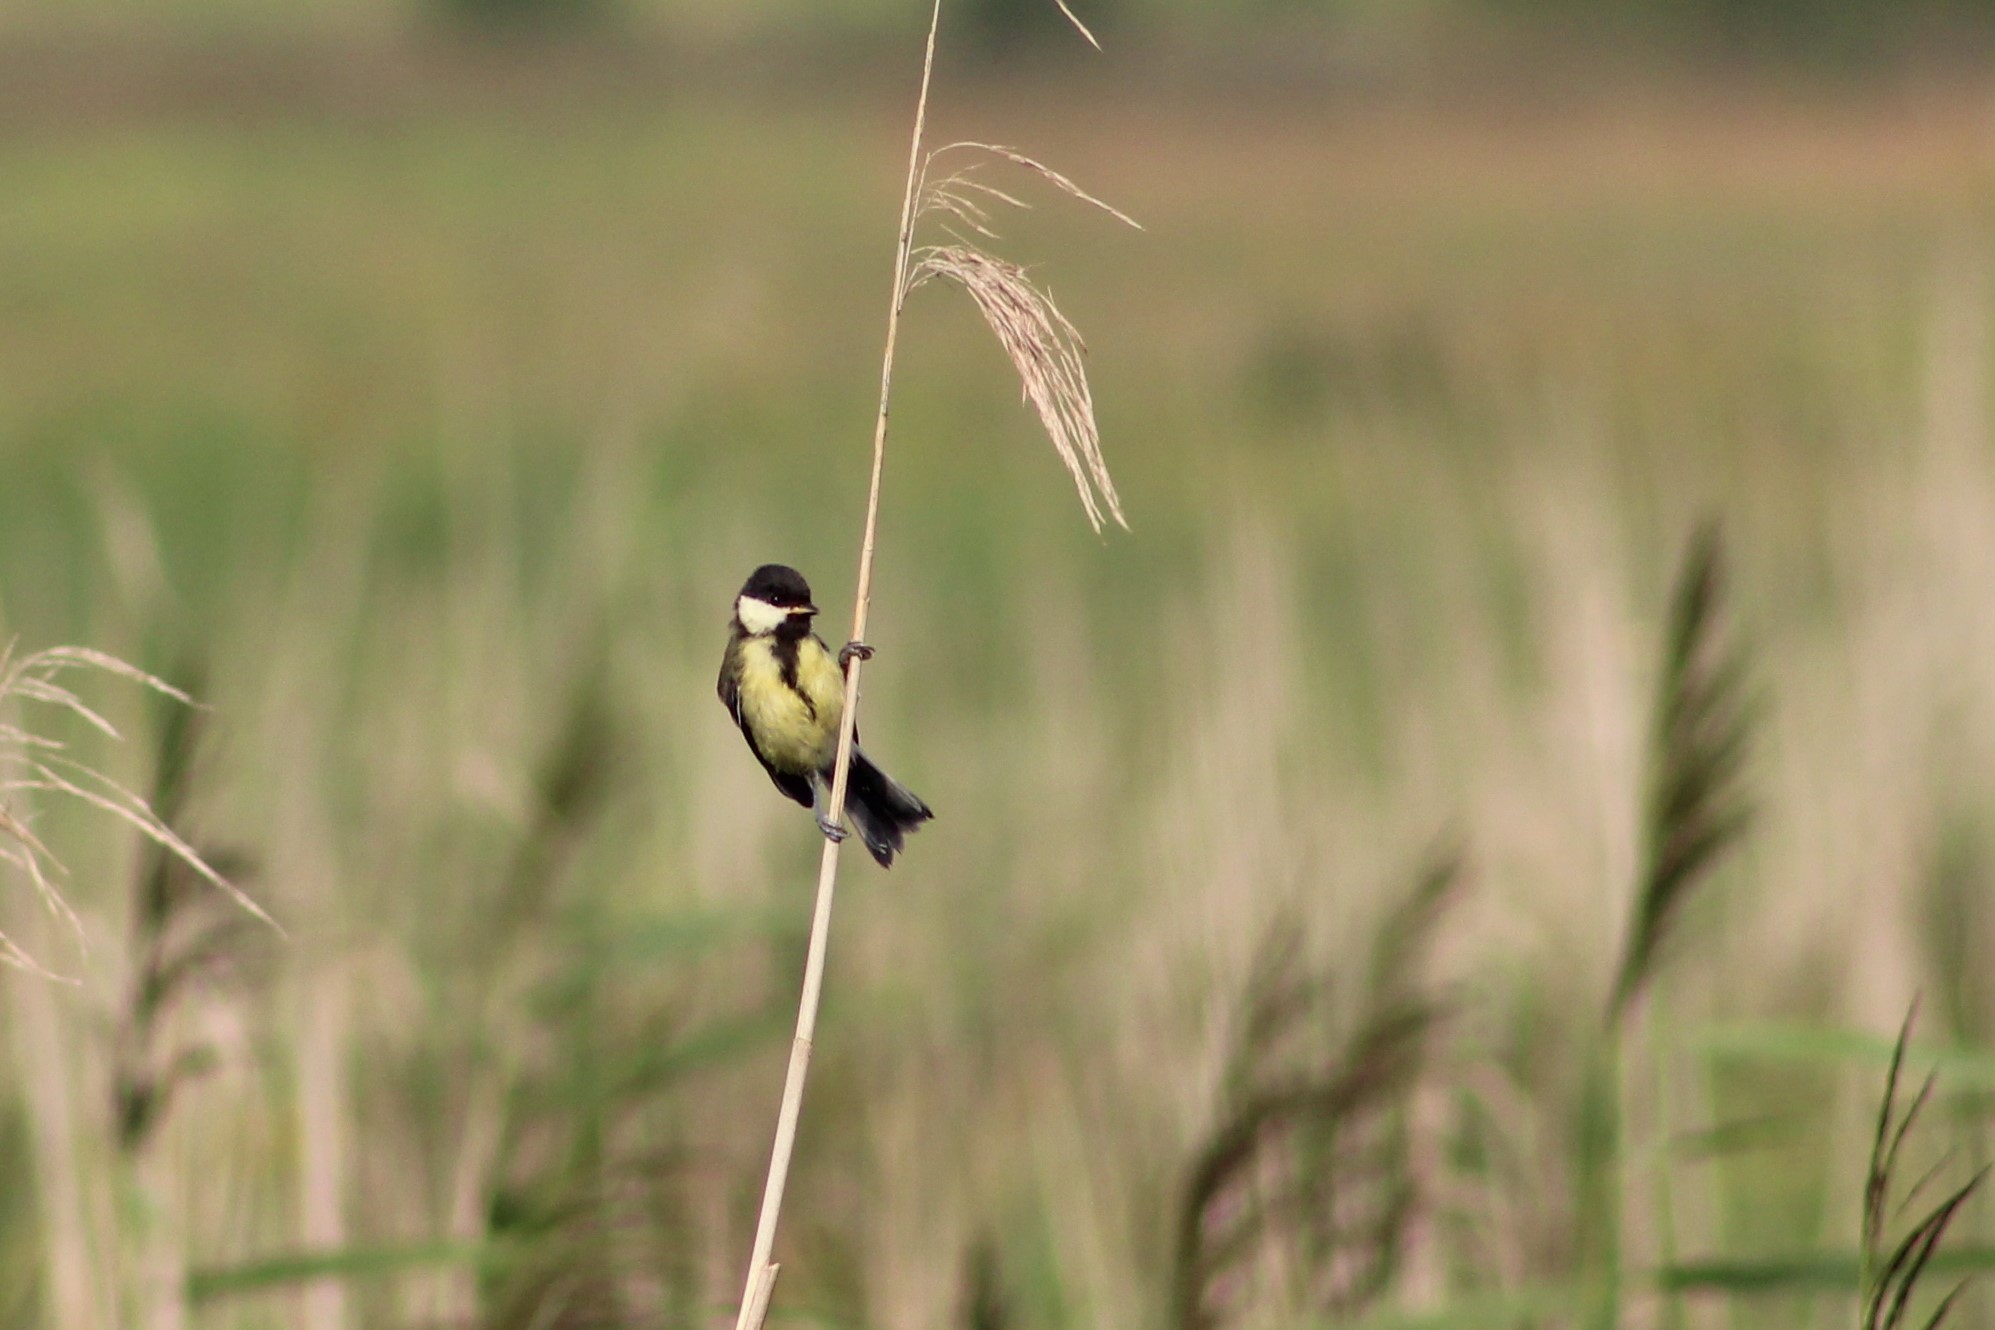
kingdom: Animalia
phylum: Chordata
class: Aves
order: Passeriformes
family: Paridae
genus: Parus
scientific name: Parus major
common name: Great tit
